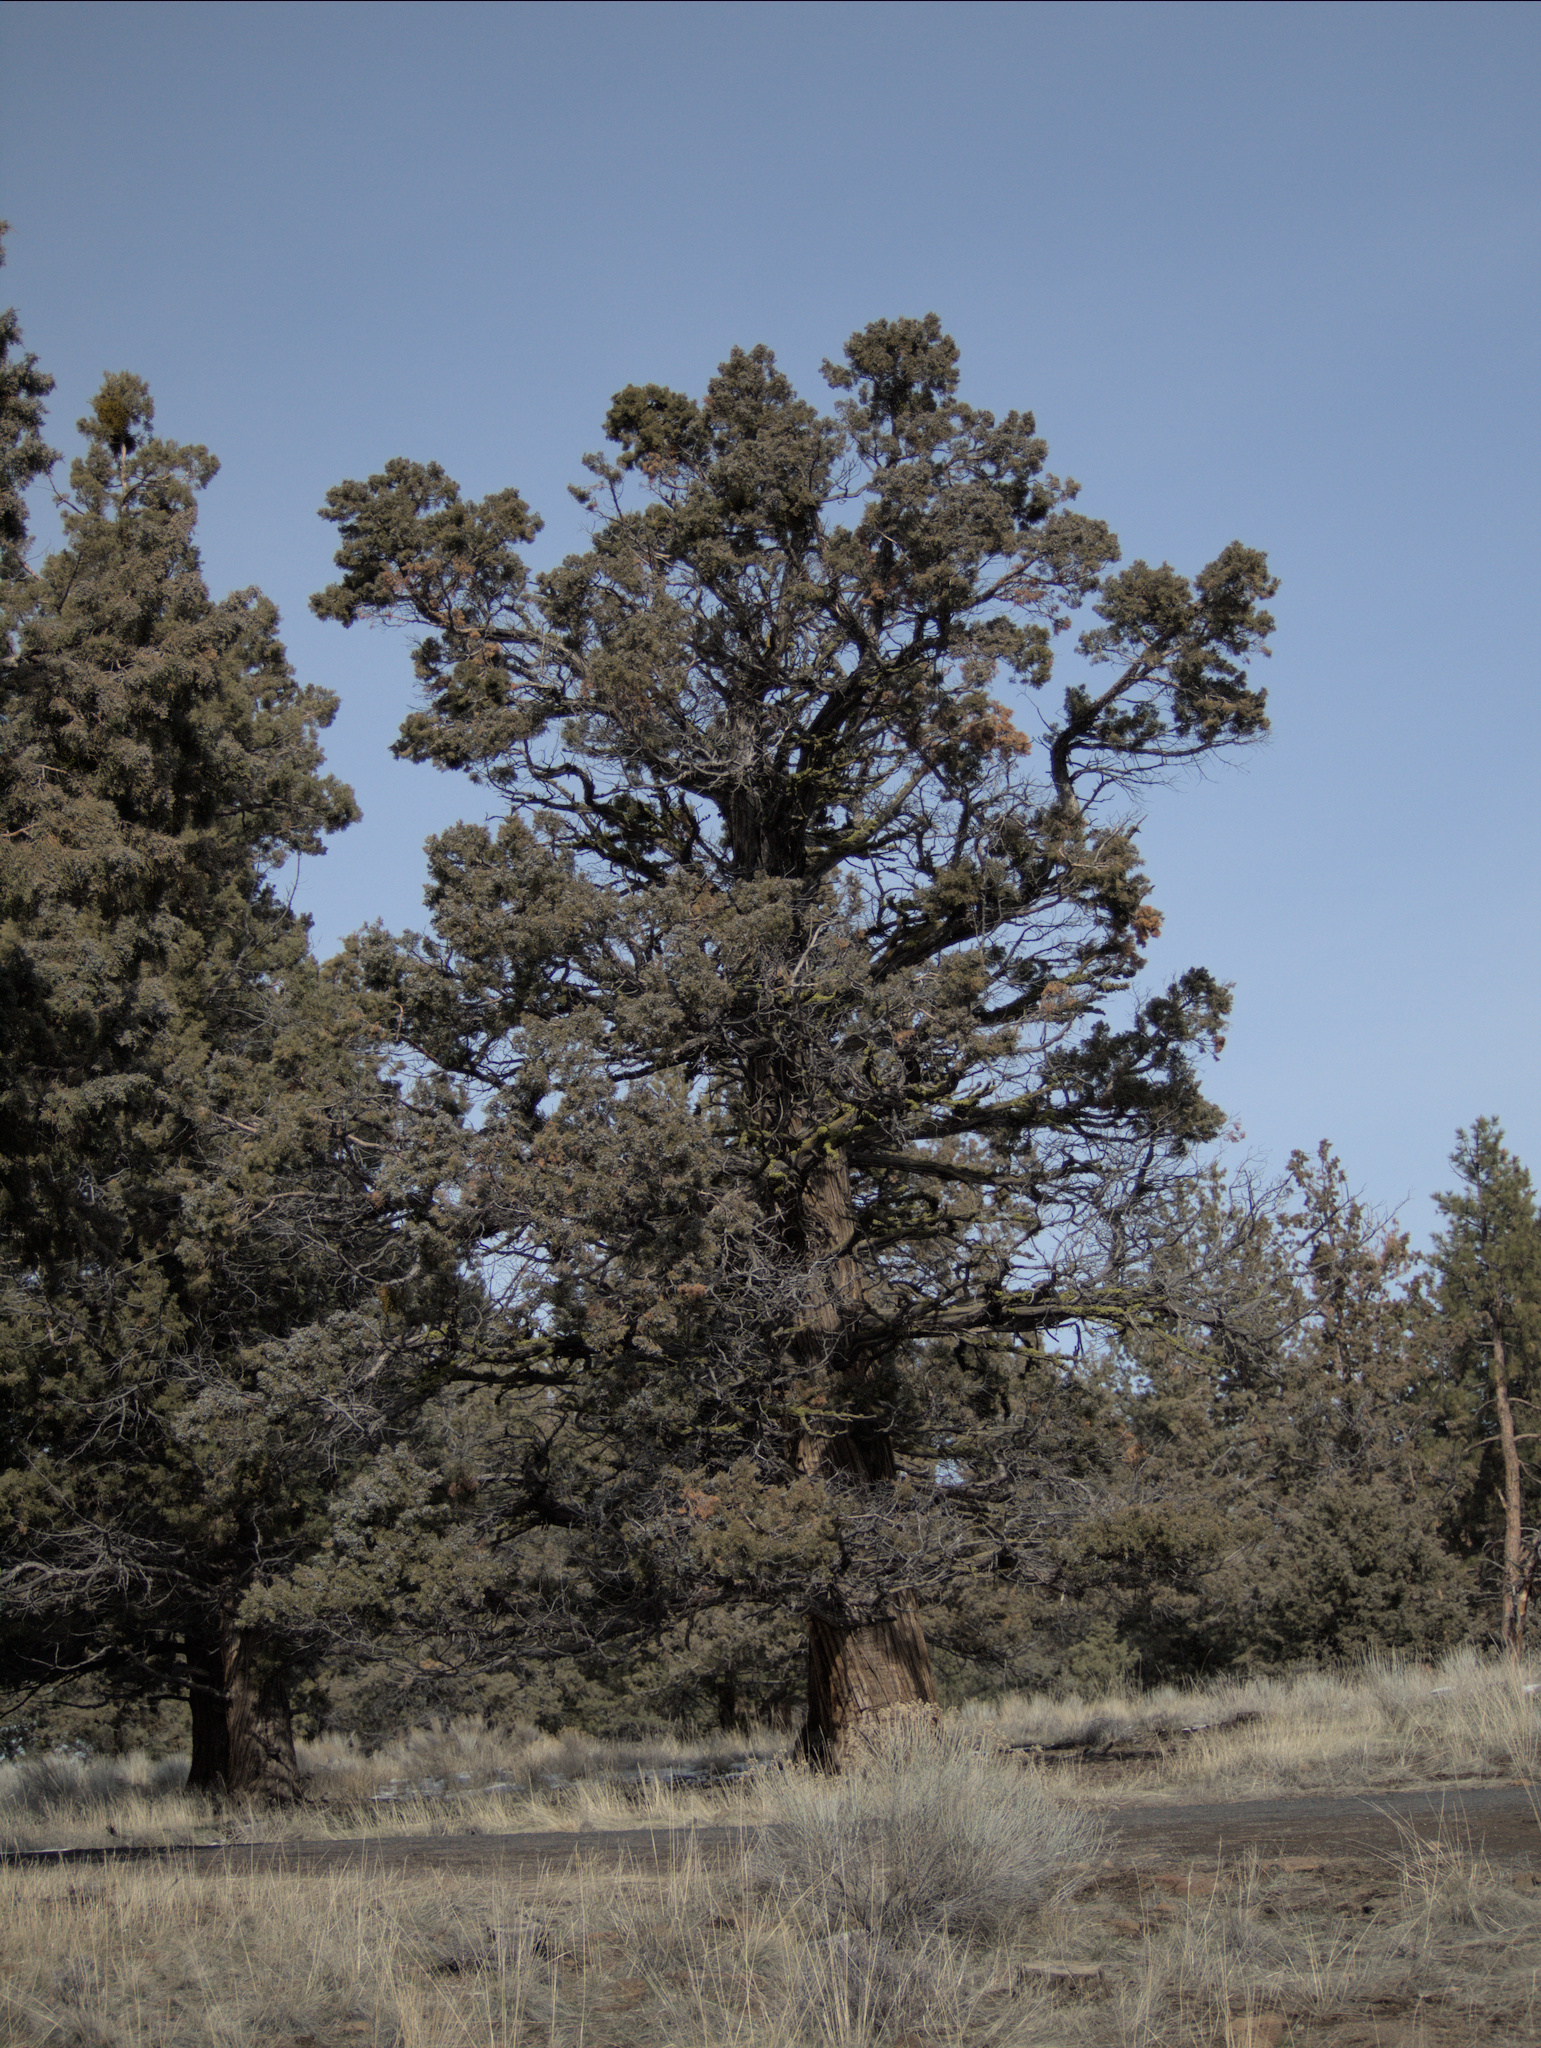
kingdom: Plantae
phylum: Tracheophyta
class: Pinopsida
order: Pinales
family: Cupressaceae
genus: Juniperus
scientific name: Juniperus occidentalis
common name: Western juniper
